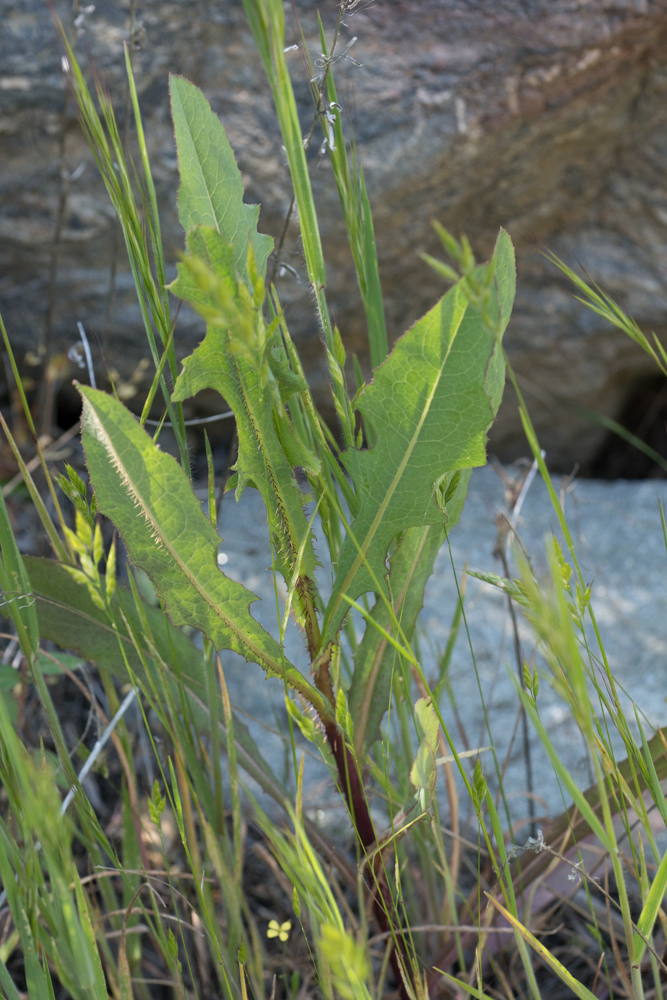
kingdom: Plantae
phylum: Tracheophyta
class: Magnoliopsida
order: Asterales
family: Asteraceae
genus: Lactuca
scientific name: Lactuca serriola
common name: Prickly lettuce
